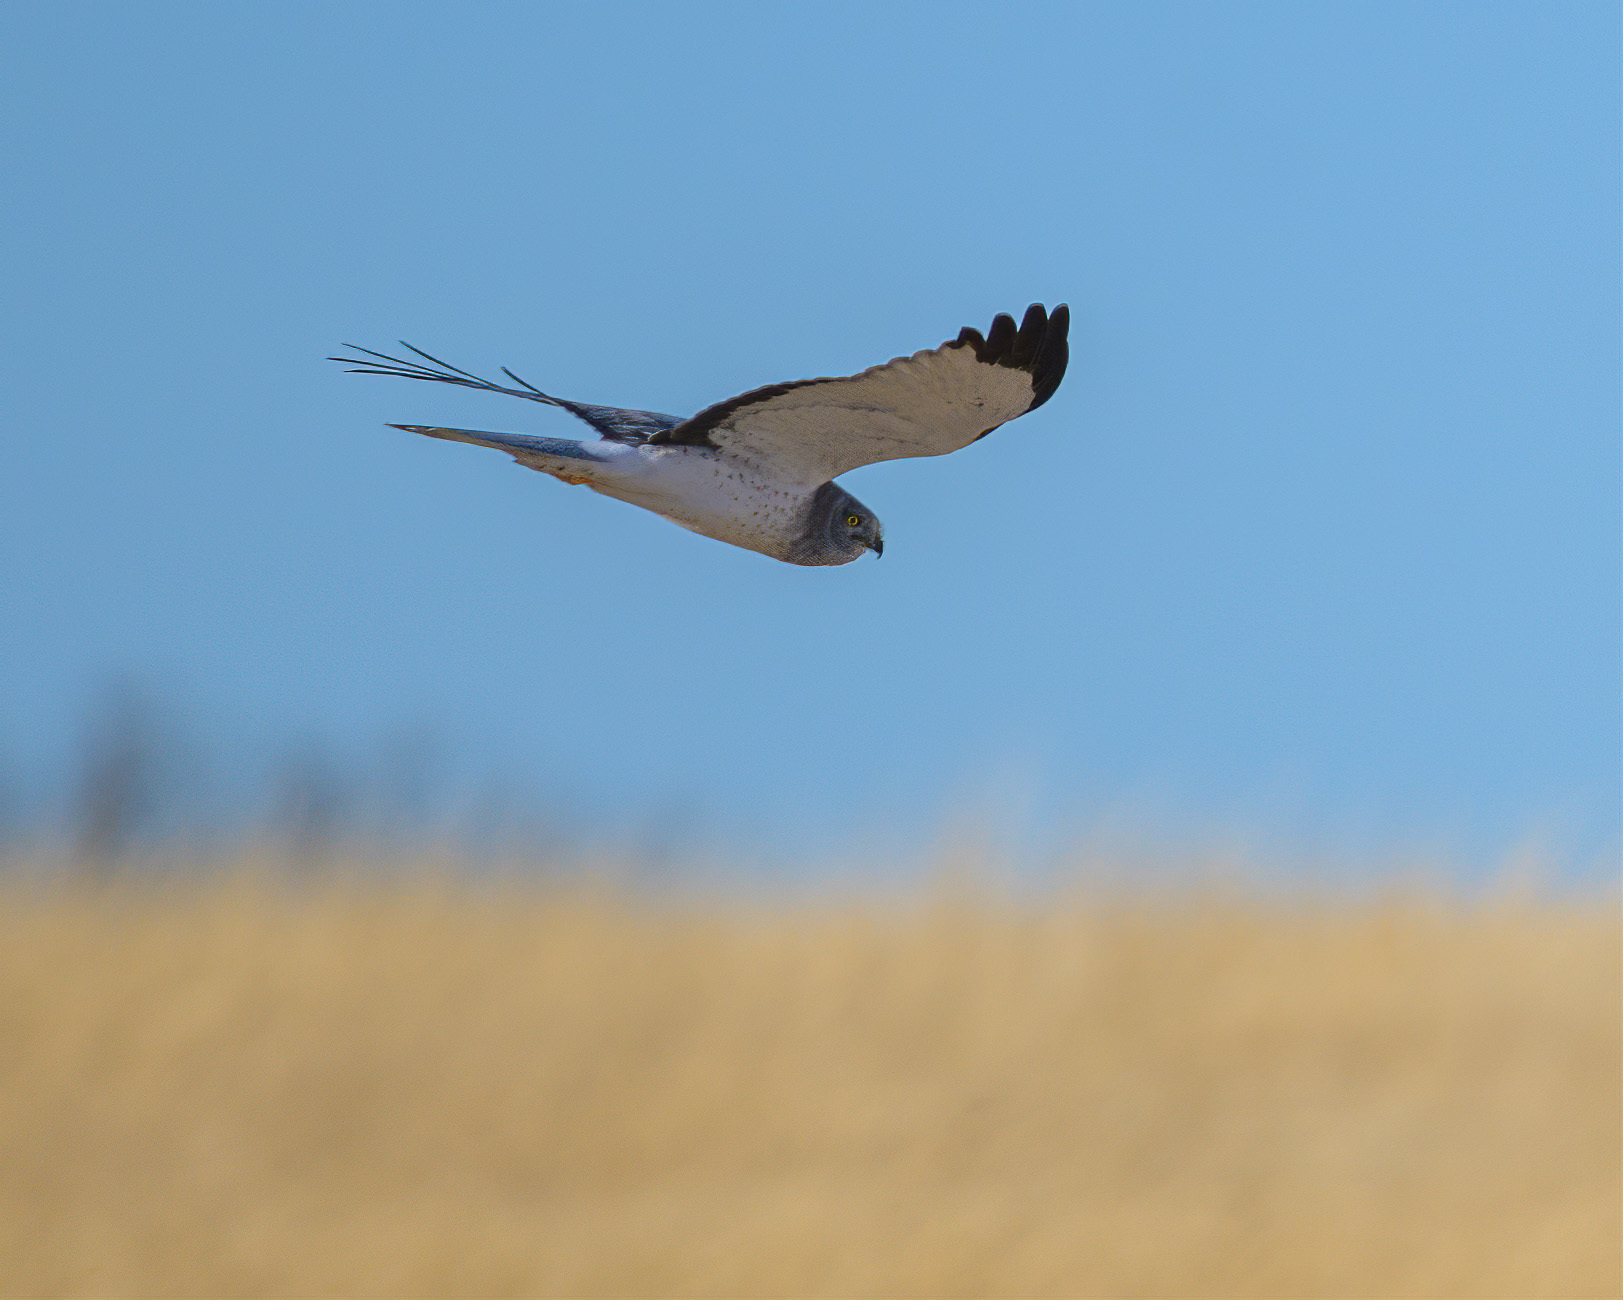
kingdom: Animalia
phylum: Chordata
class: Aves
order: Accipitriformes
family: Accipitridae
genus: Circus
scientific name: Circus cyaneus
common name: Hen harrier
